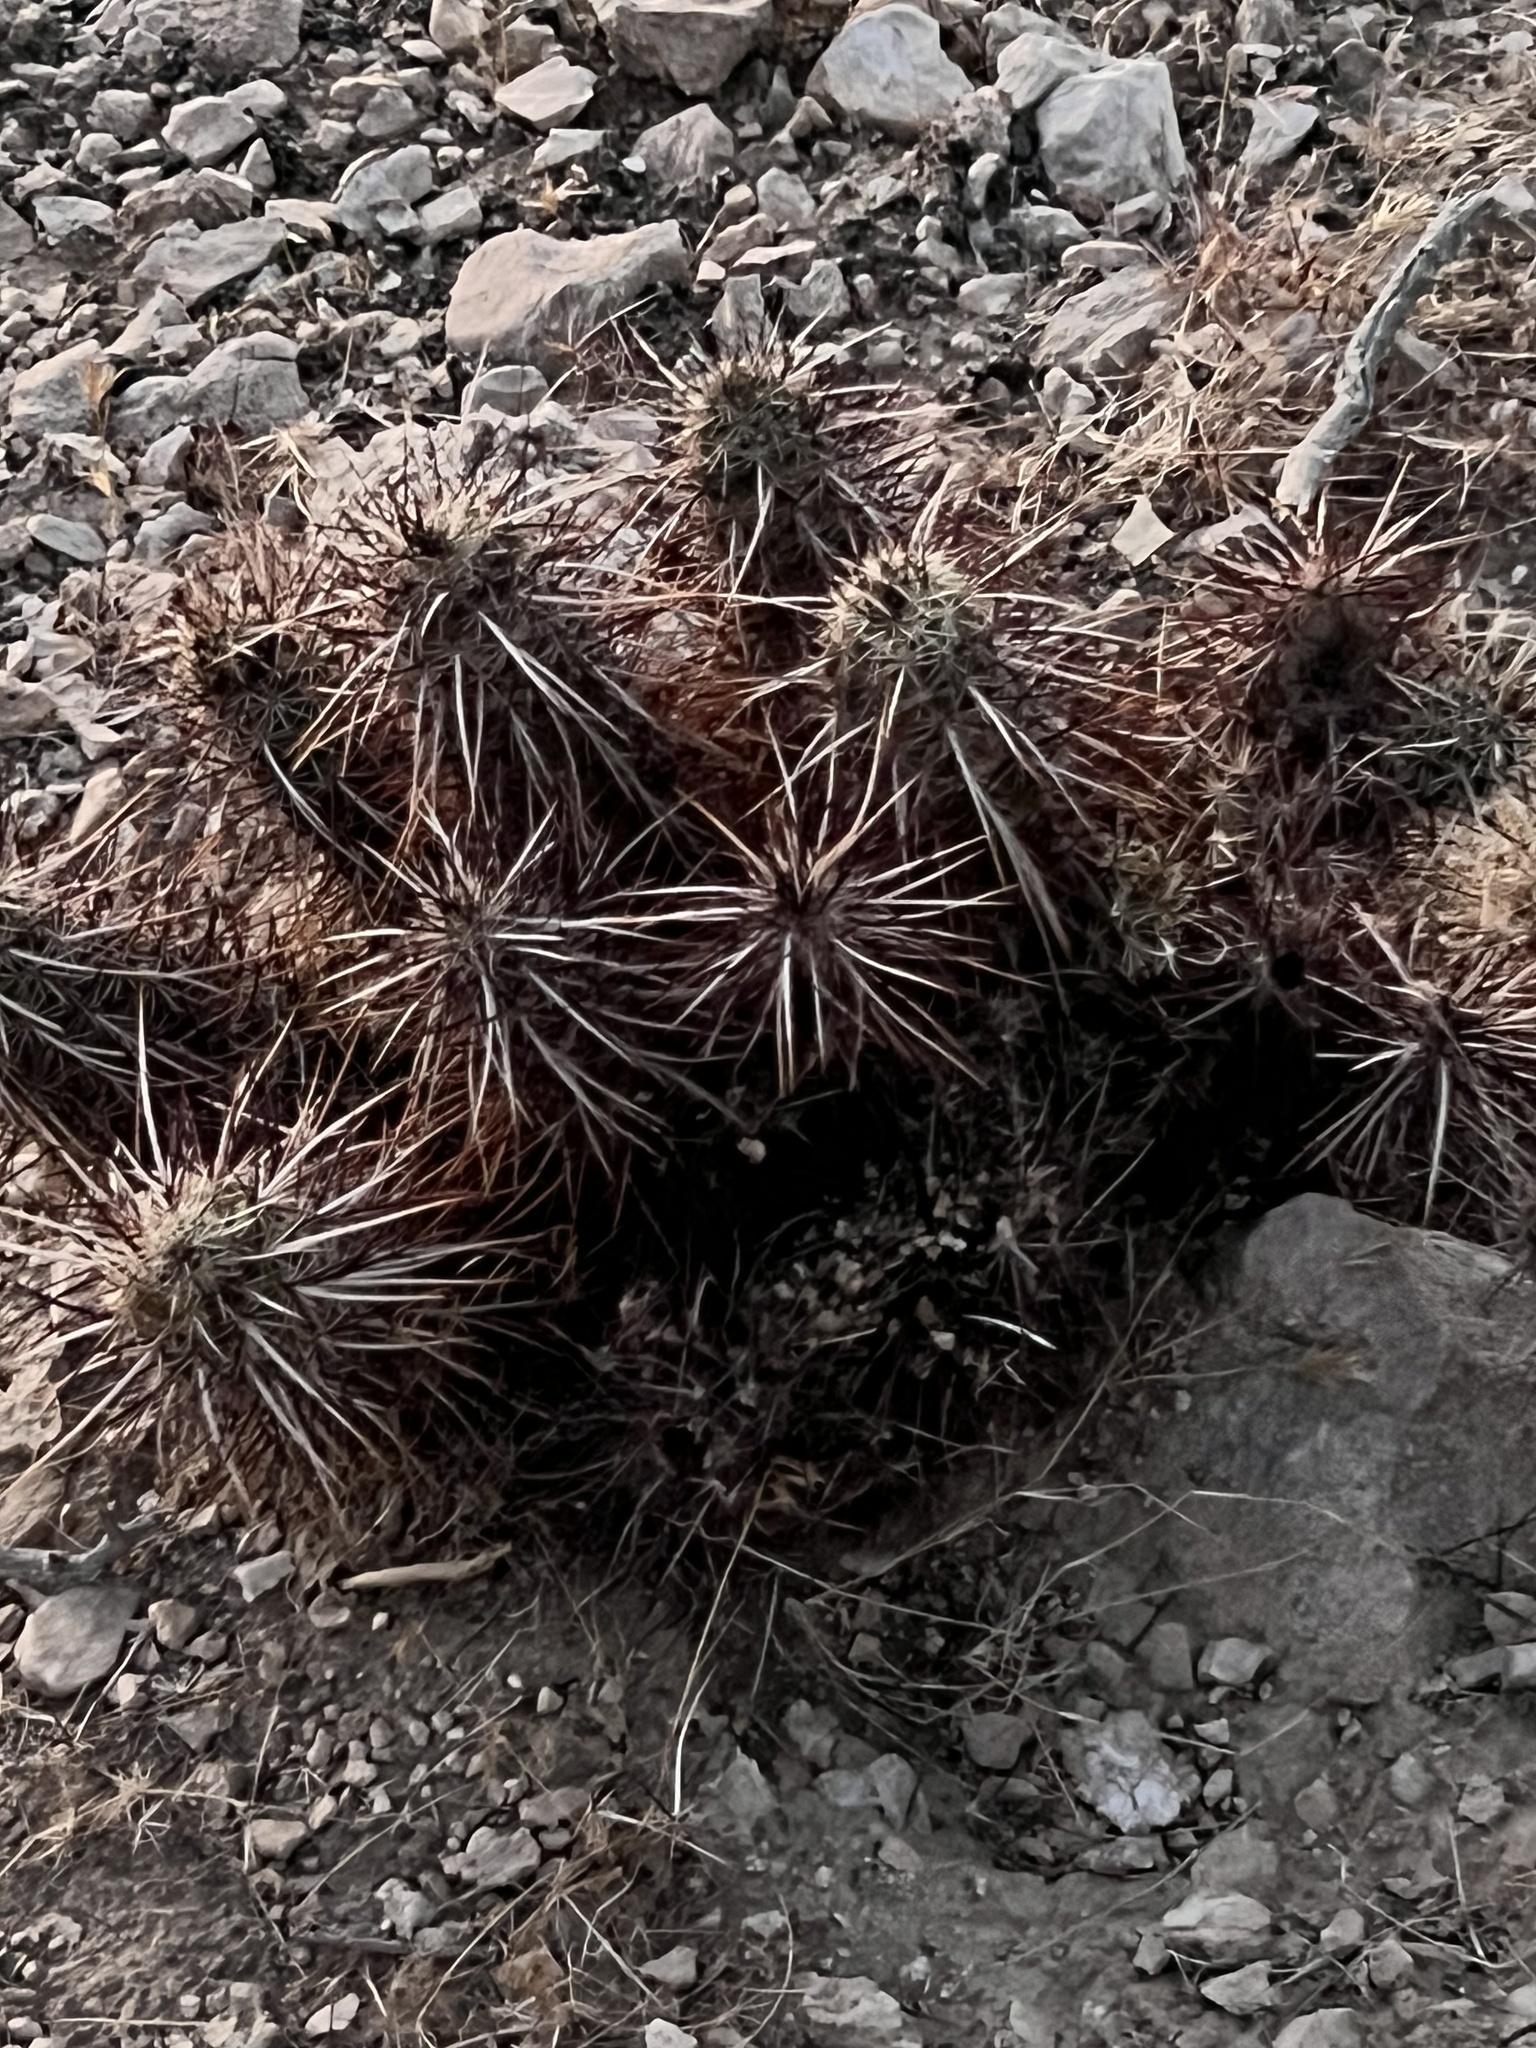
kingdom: Plantae
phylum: Tracheophyta
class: Magnoliopsida
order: Caryophyllales
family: Cactaceae
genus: Echinocereus
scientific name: Echinocereus engelmannii
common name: Engelmann's hedgehog cactus
